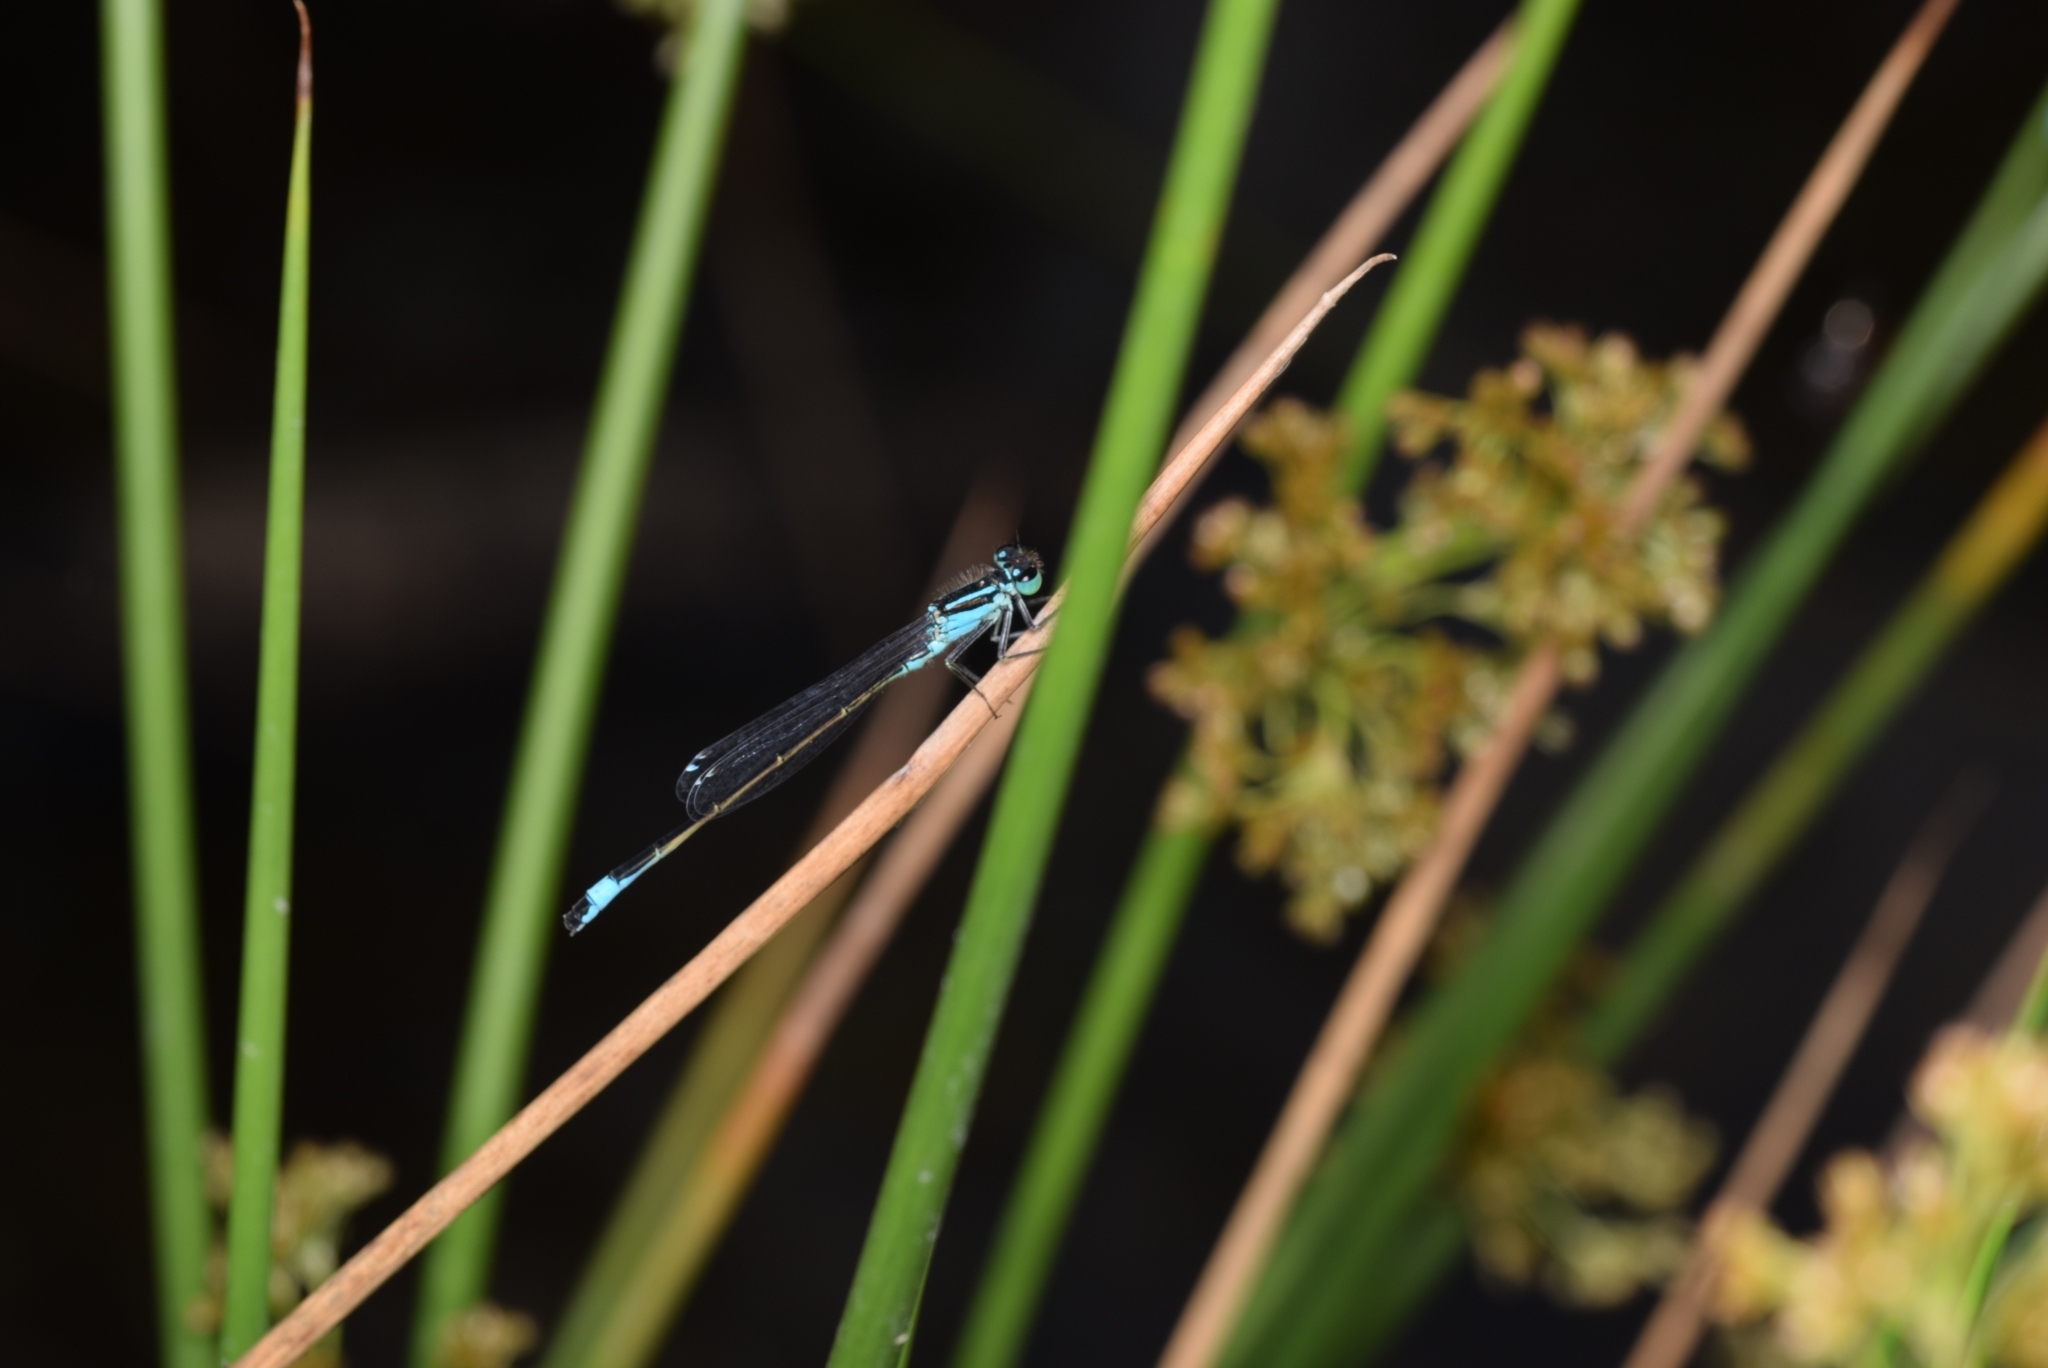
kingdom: Animalia
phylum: Arthropoda
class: Insecta
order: Odonata
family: Coenagrionidae
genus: Ischnura
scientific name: Ischnura elegans
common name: Blue-tailed damselfly
